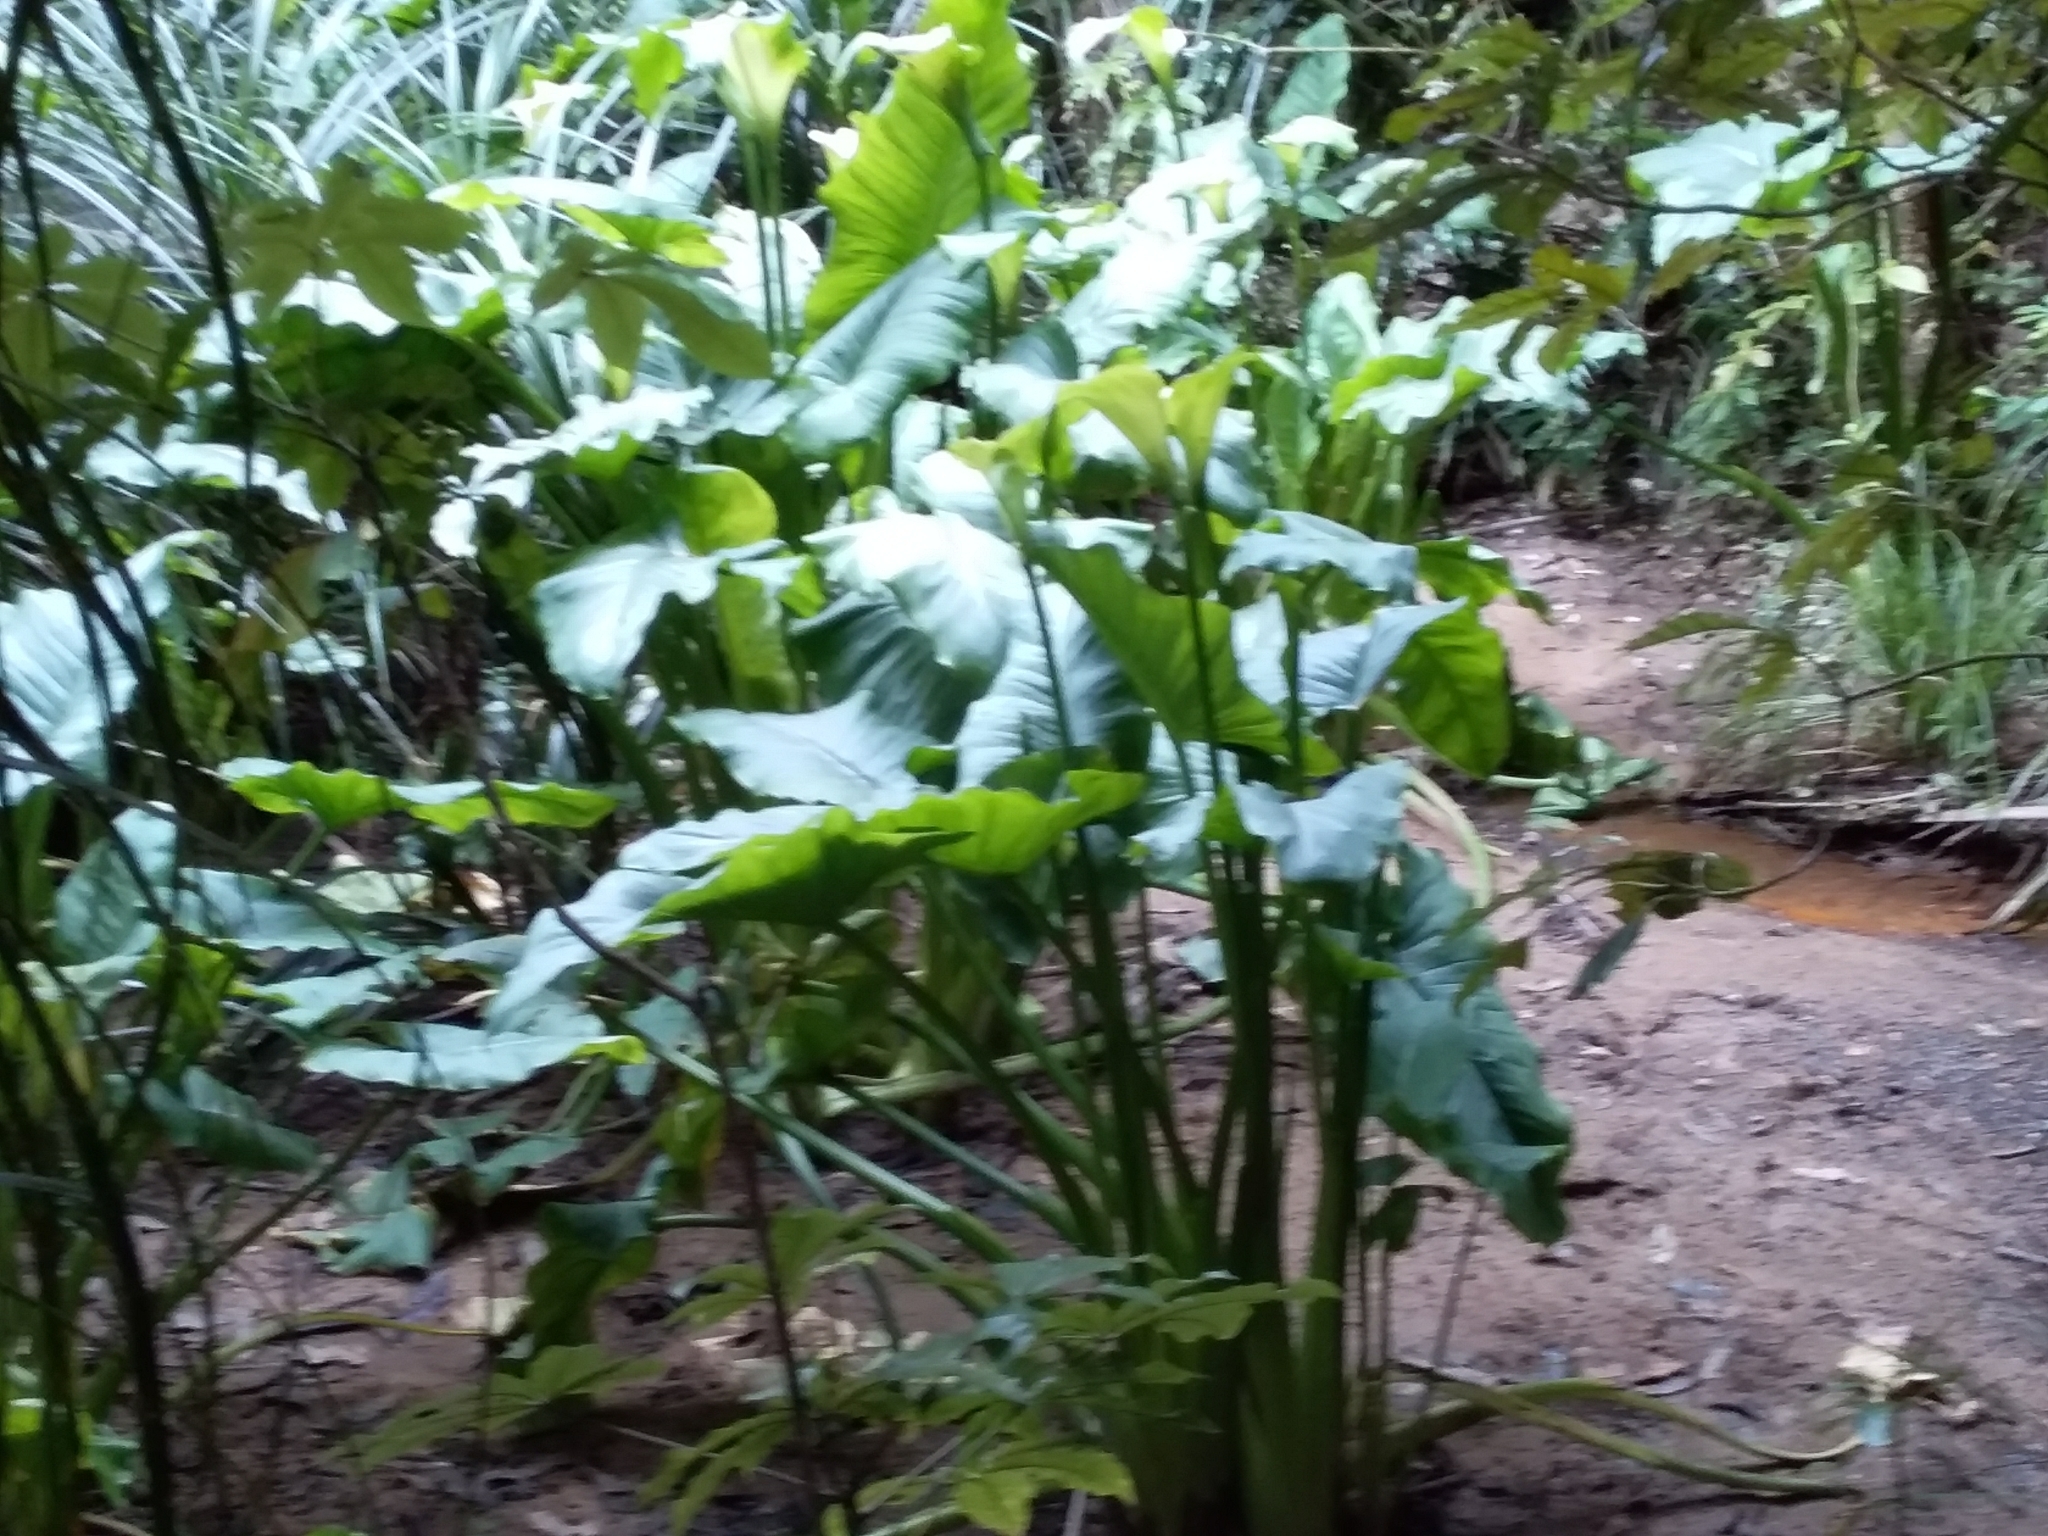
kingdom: Plantae
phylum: Tracheophyta
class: Liliopsida
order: Alismatales
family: Araceae
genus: Zantedeschia
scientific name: Zantedeschia aethiopica
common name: Altar-lily
